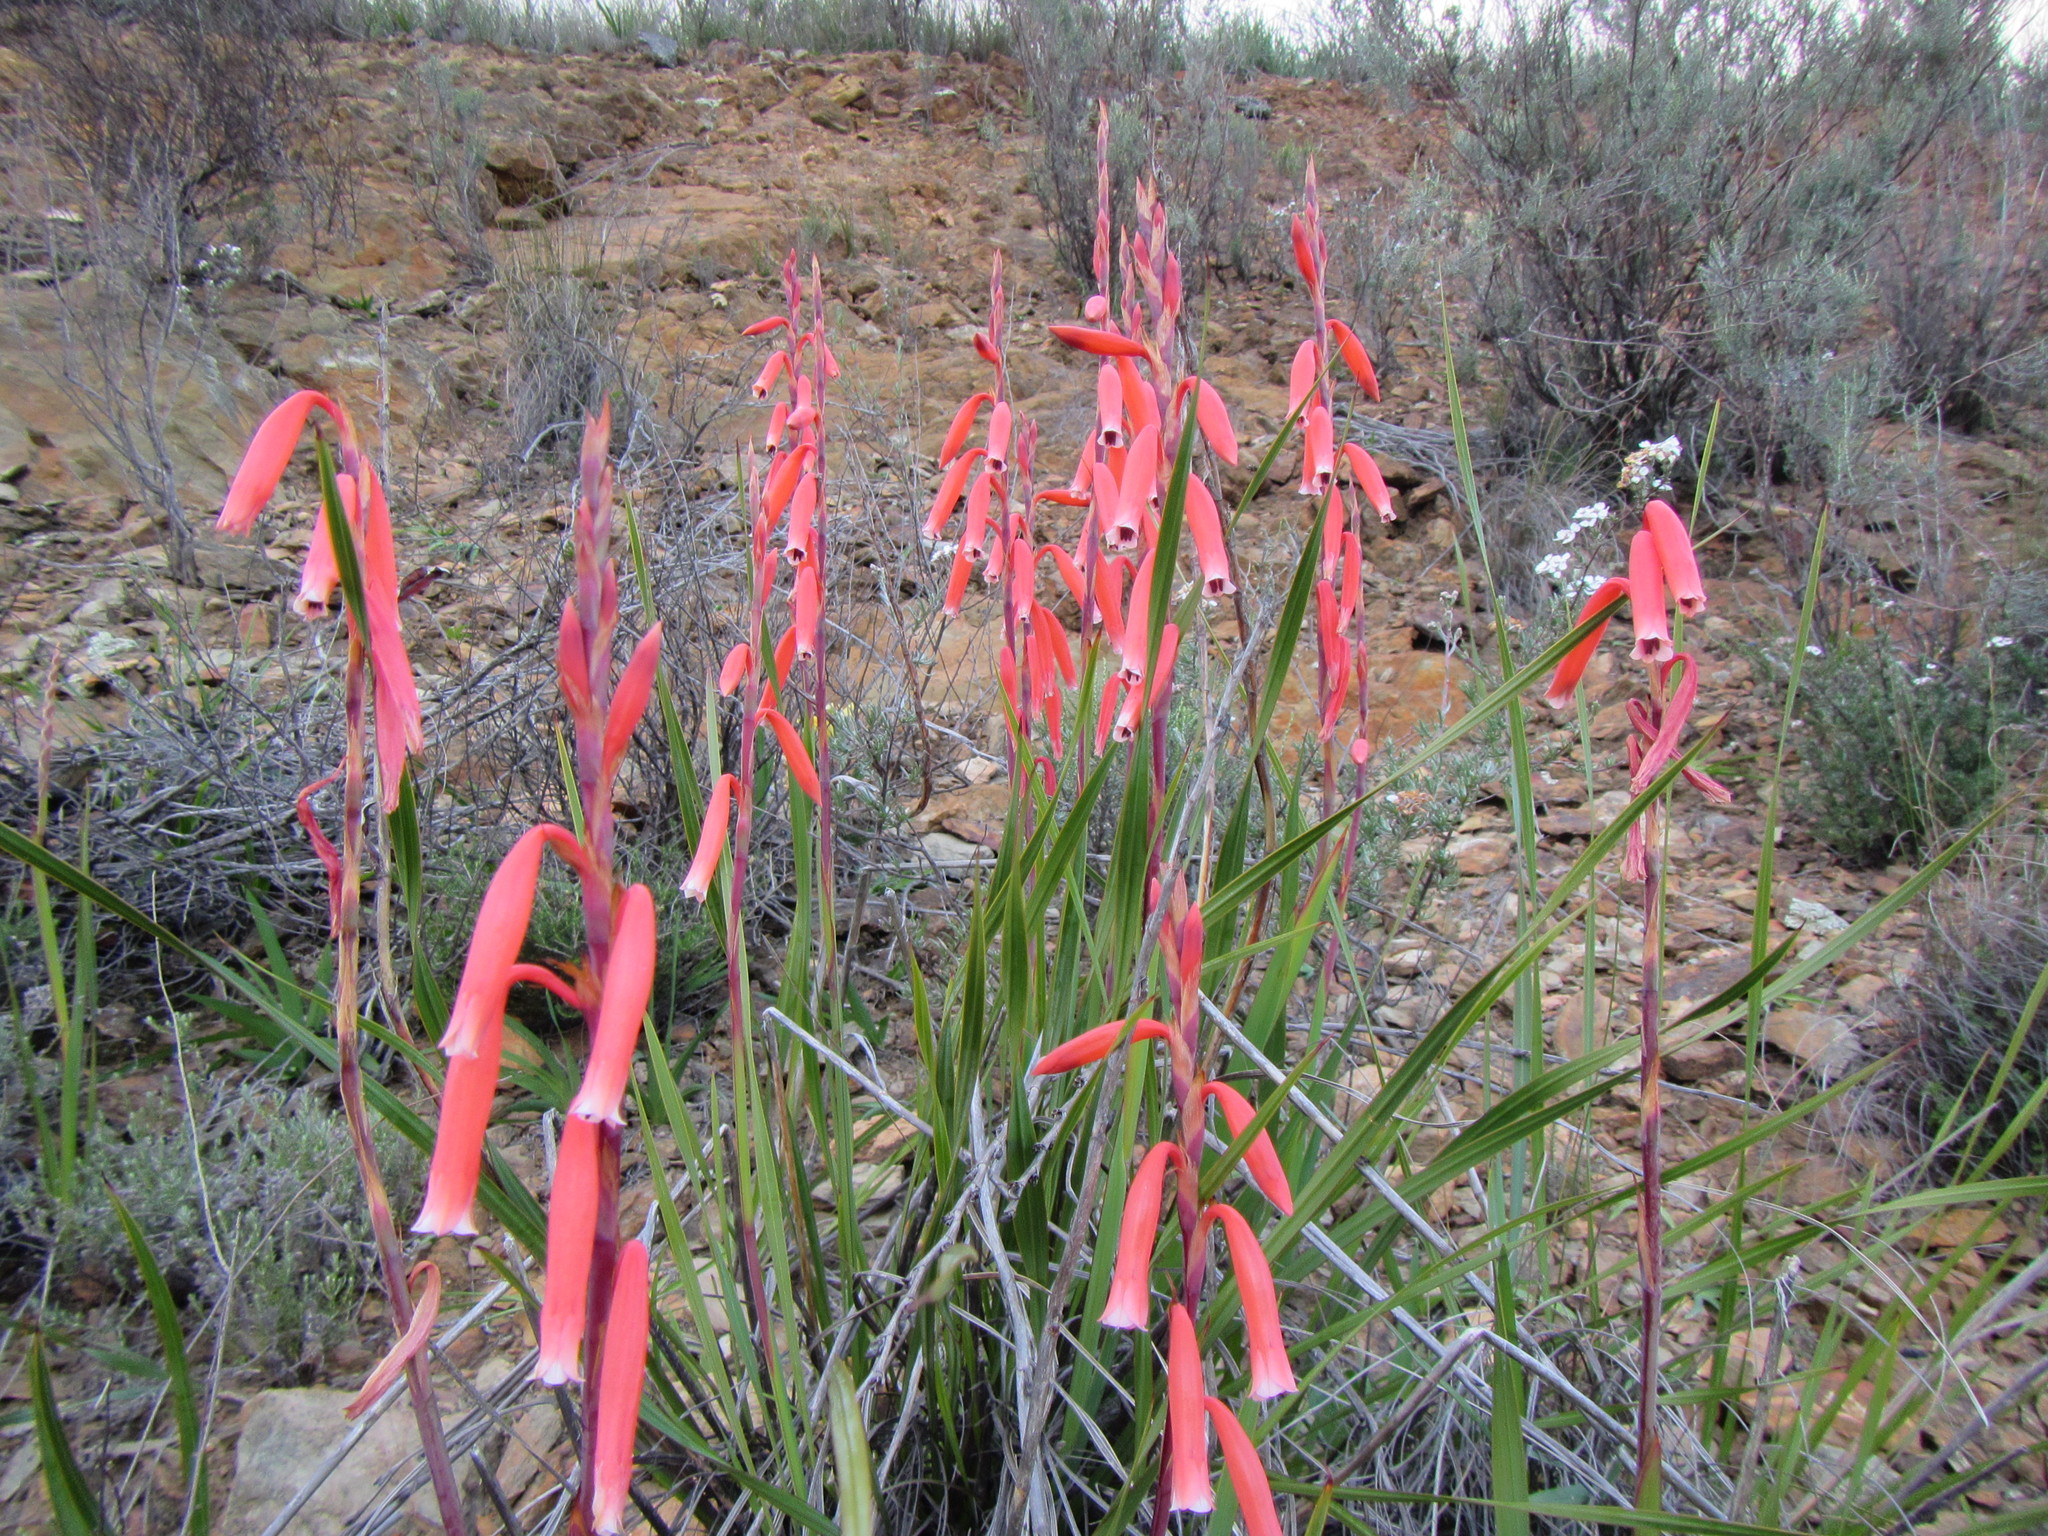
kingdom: Plantae
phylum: Tracheophyta
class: Liliopsida
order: Asparagales
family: Iridaceae
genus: Watsonia
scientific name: Watsonia aletroides
